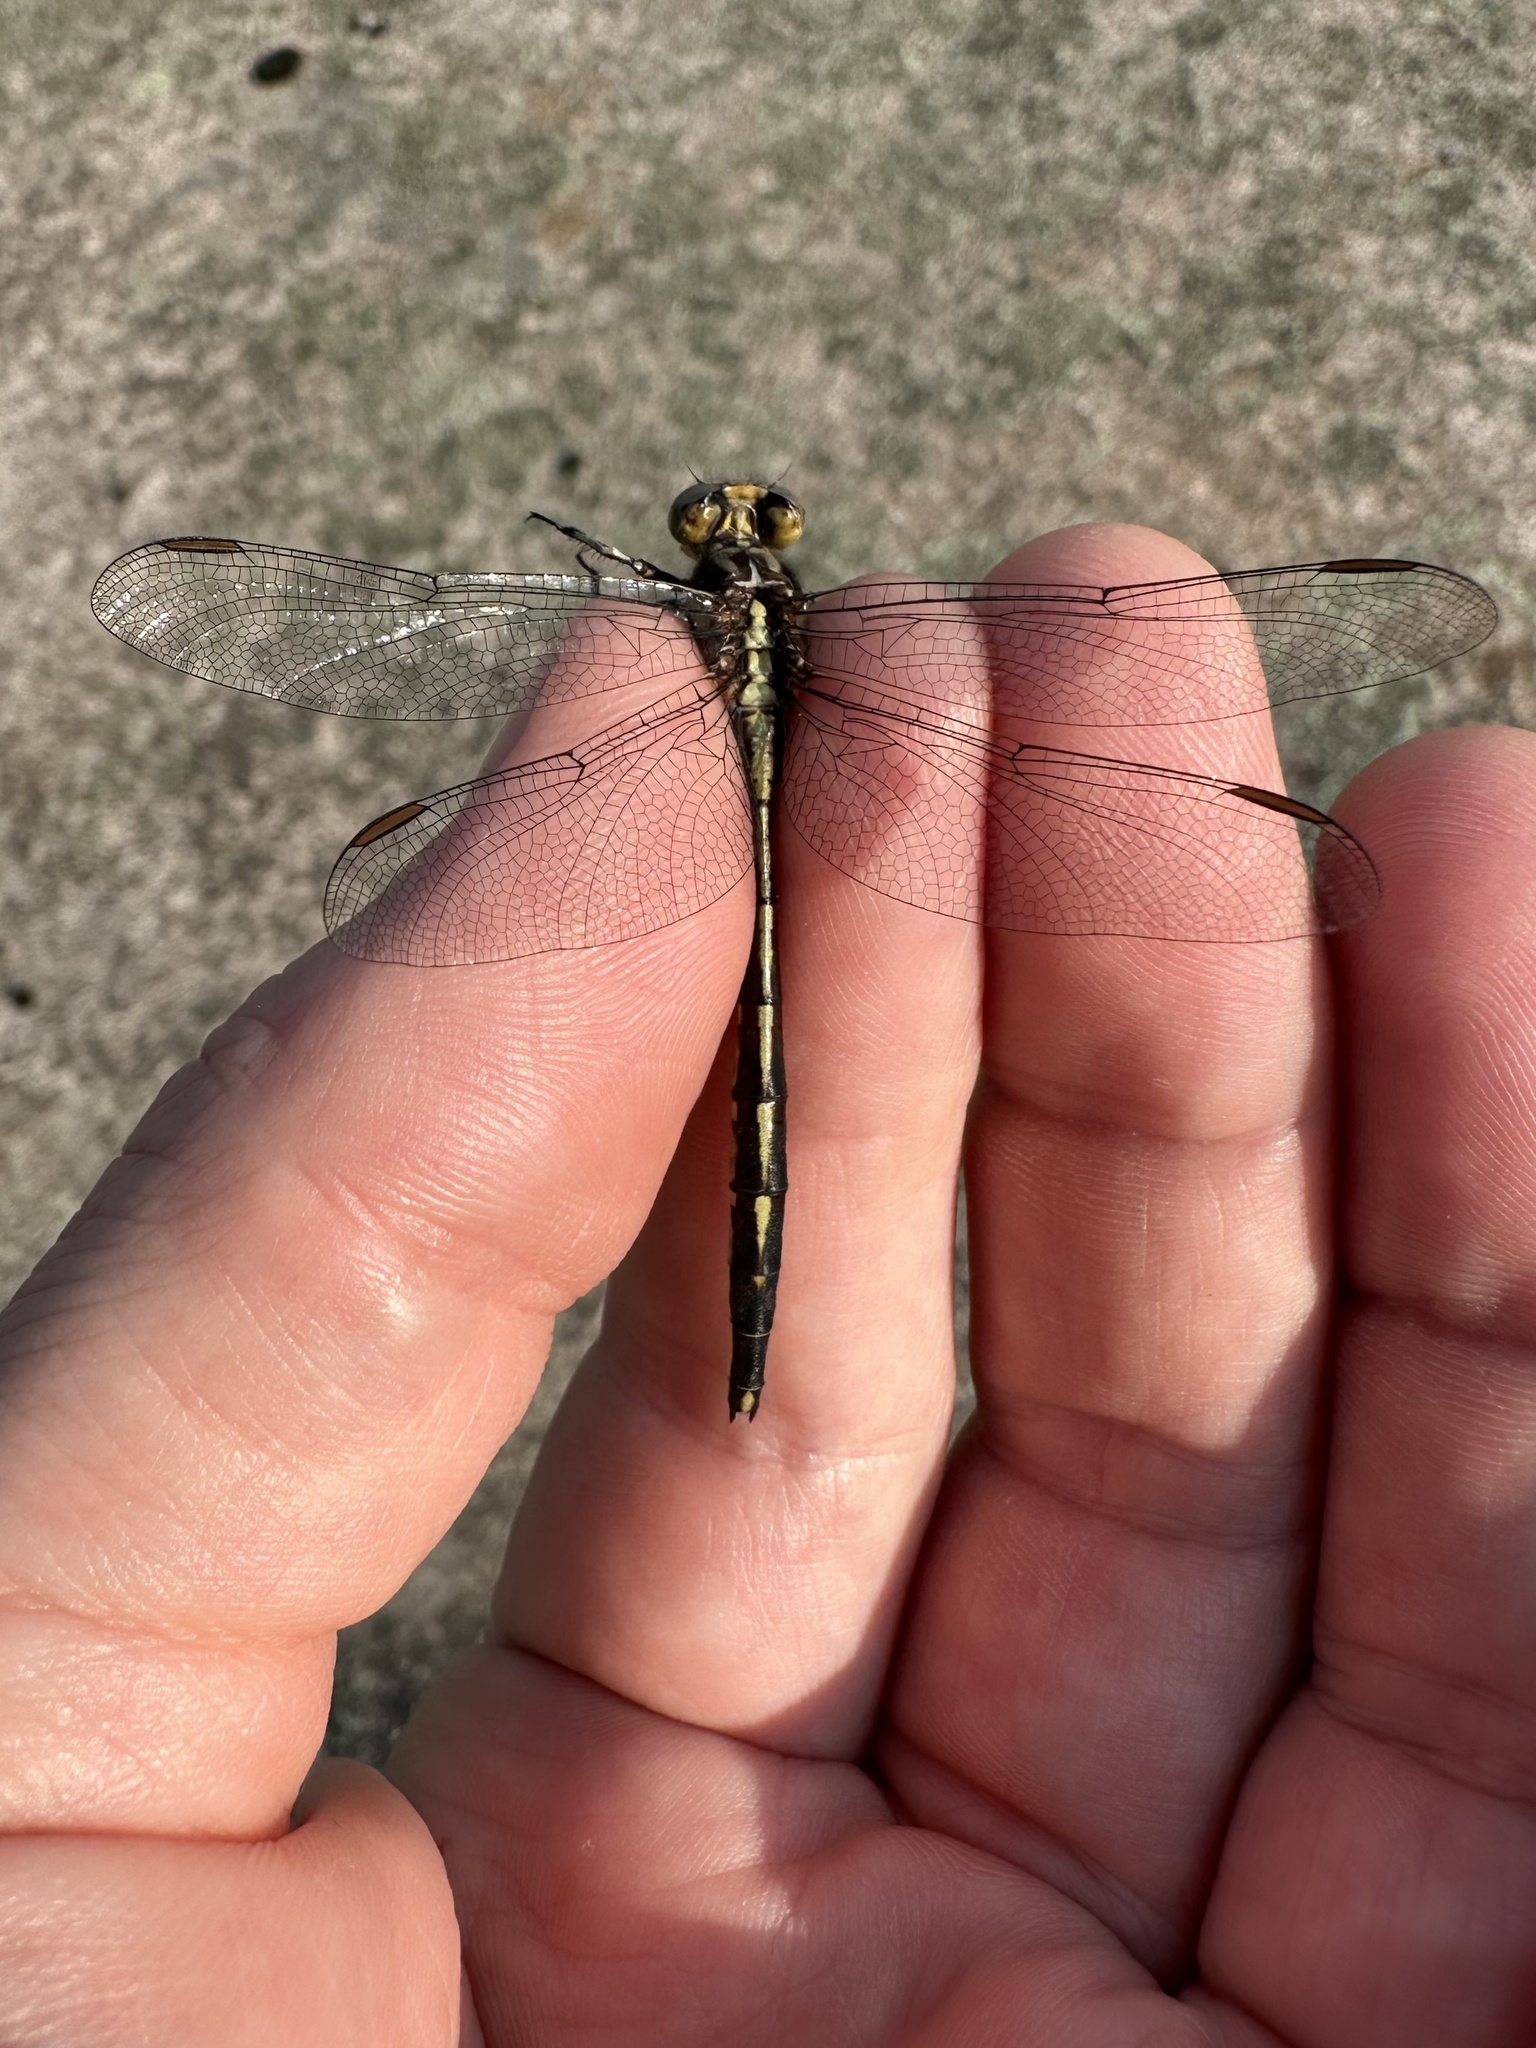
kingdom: Animalia
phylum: Arthropoda
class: Insecta
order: Odonata
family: Gomphidae
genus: Phanogomphus
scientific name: Phanogomphus spicatus
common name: Dusky clubtail
